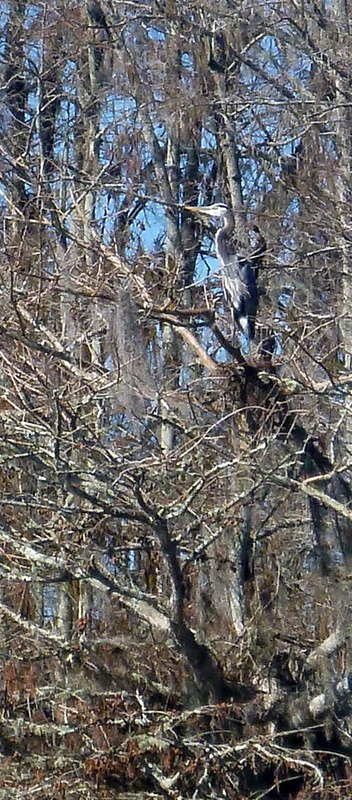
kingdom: Animalia
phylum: Chordata
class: Aves
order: Pelecaniformes
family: Ardeidae
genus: Ardea
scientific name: Ardea herodias
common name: Great blue heron
